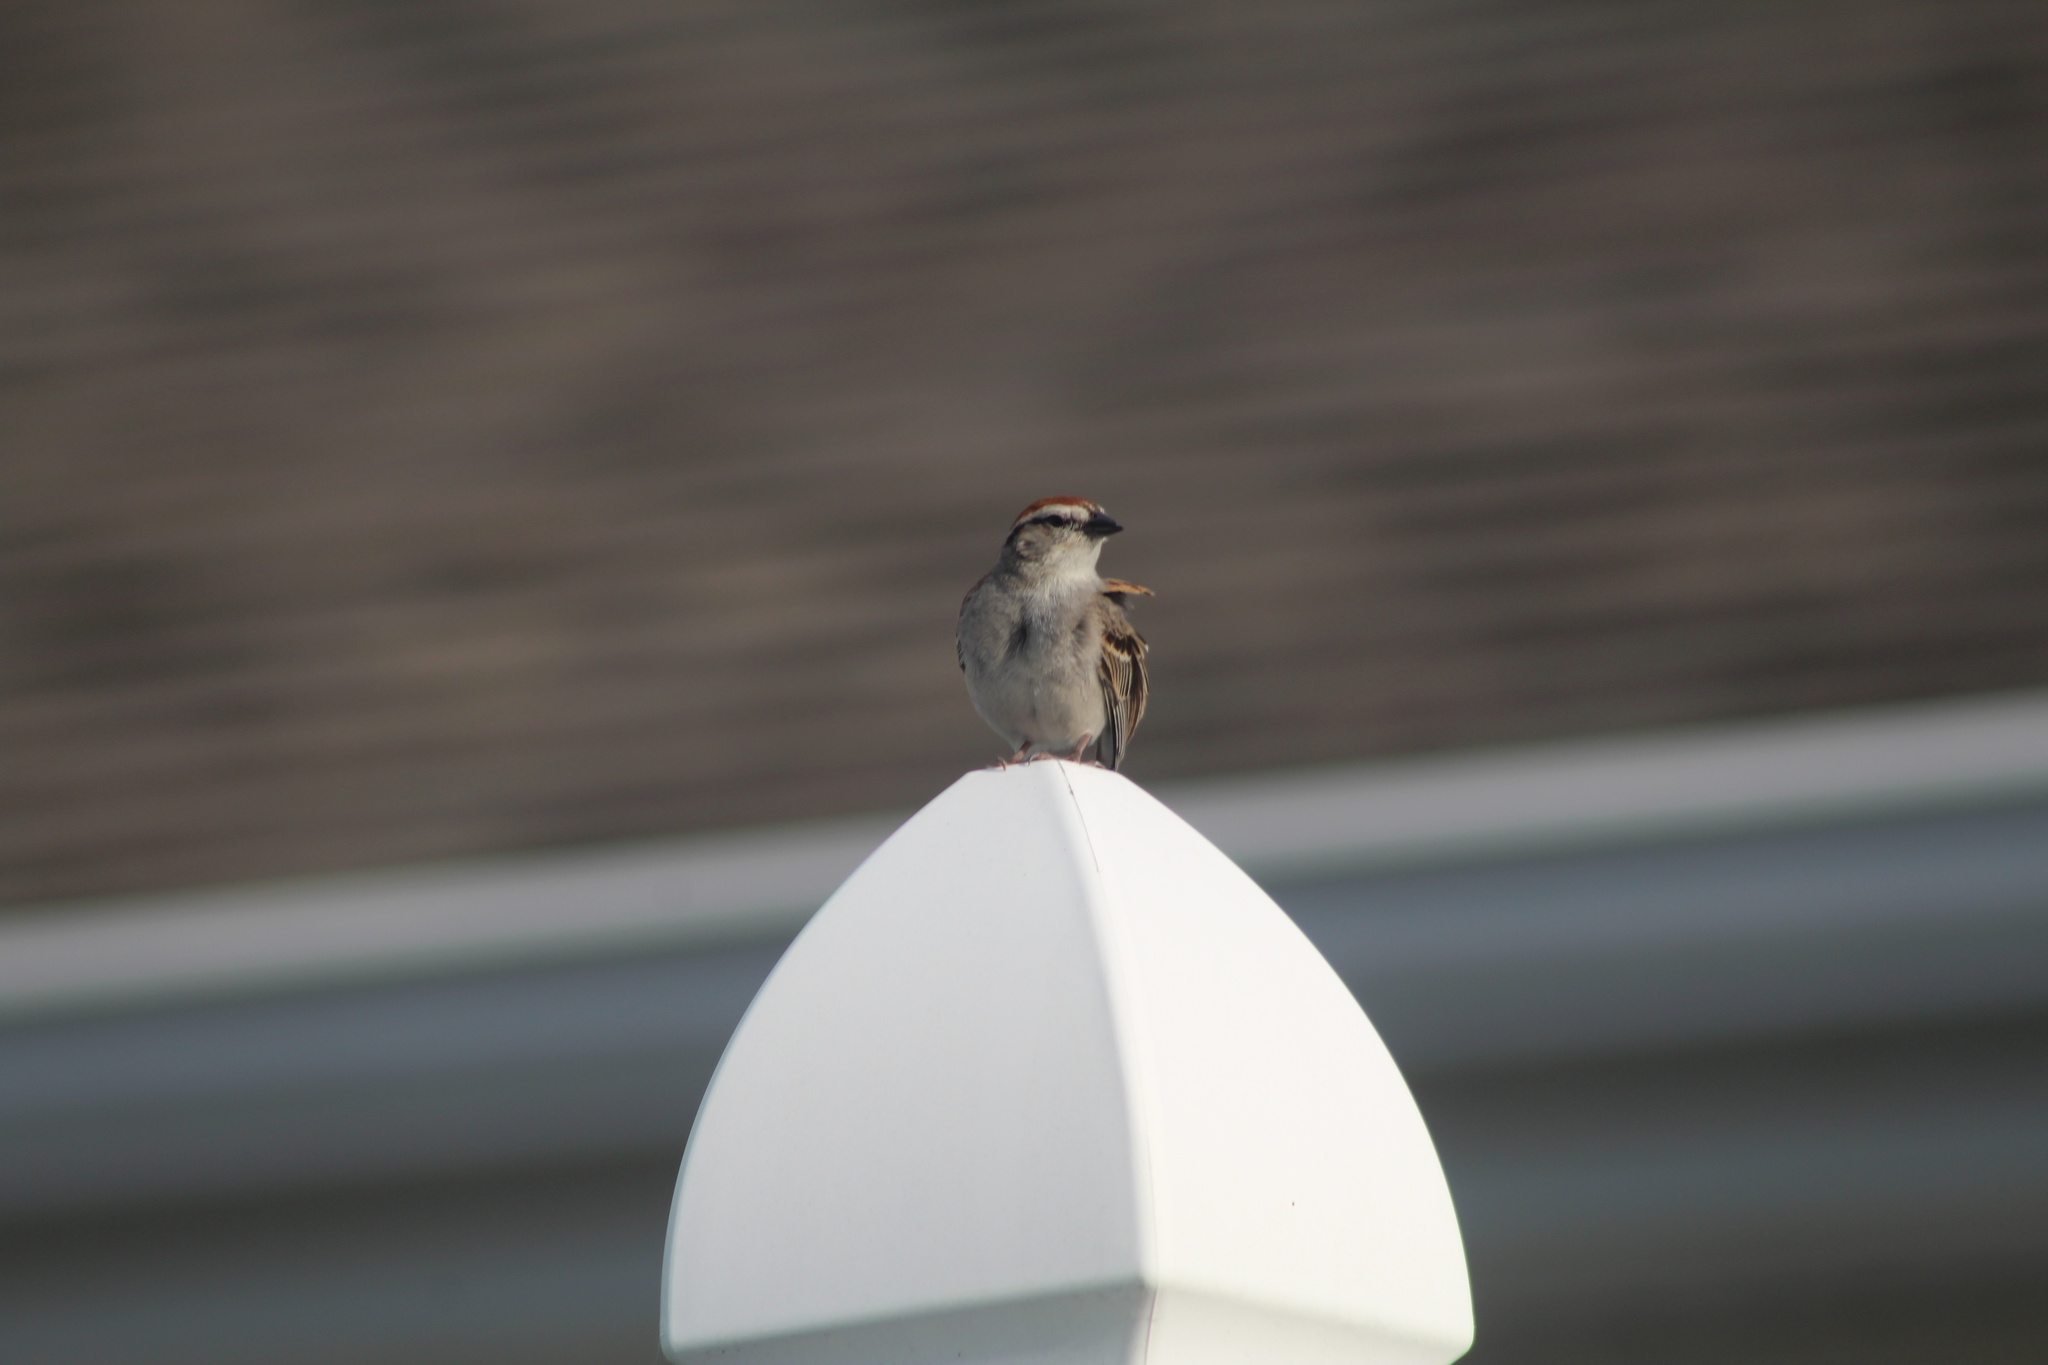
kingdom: Animalia
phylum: Chordata
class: Aves
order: Passeriformes
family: Passerellidae
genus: Spizella
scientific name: Spizella passerina
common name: Chipping sparrow
